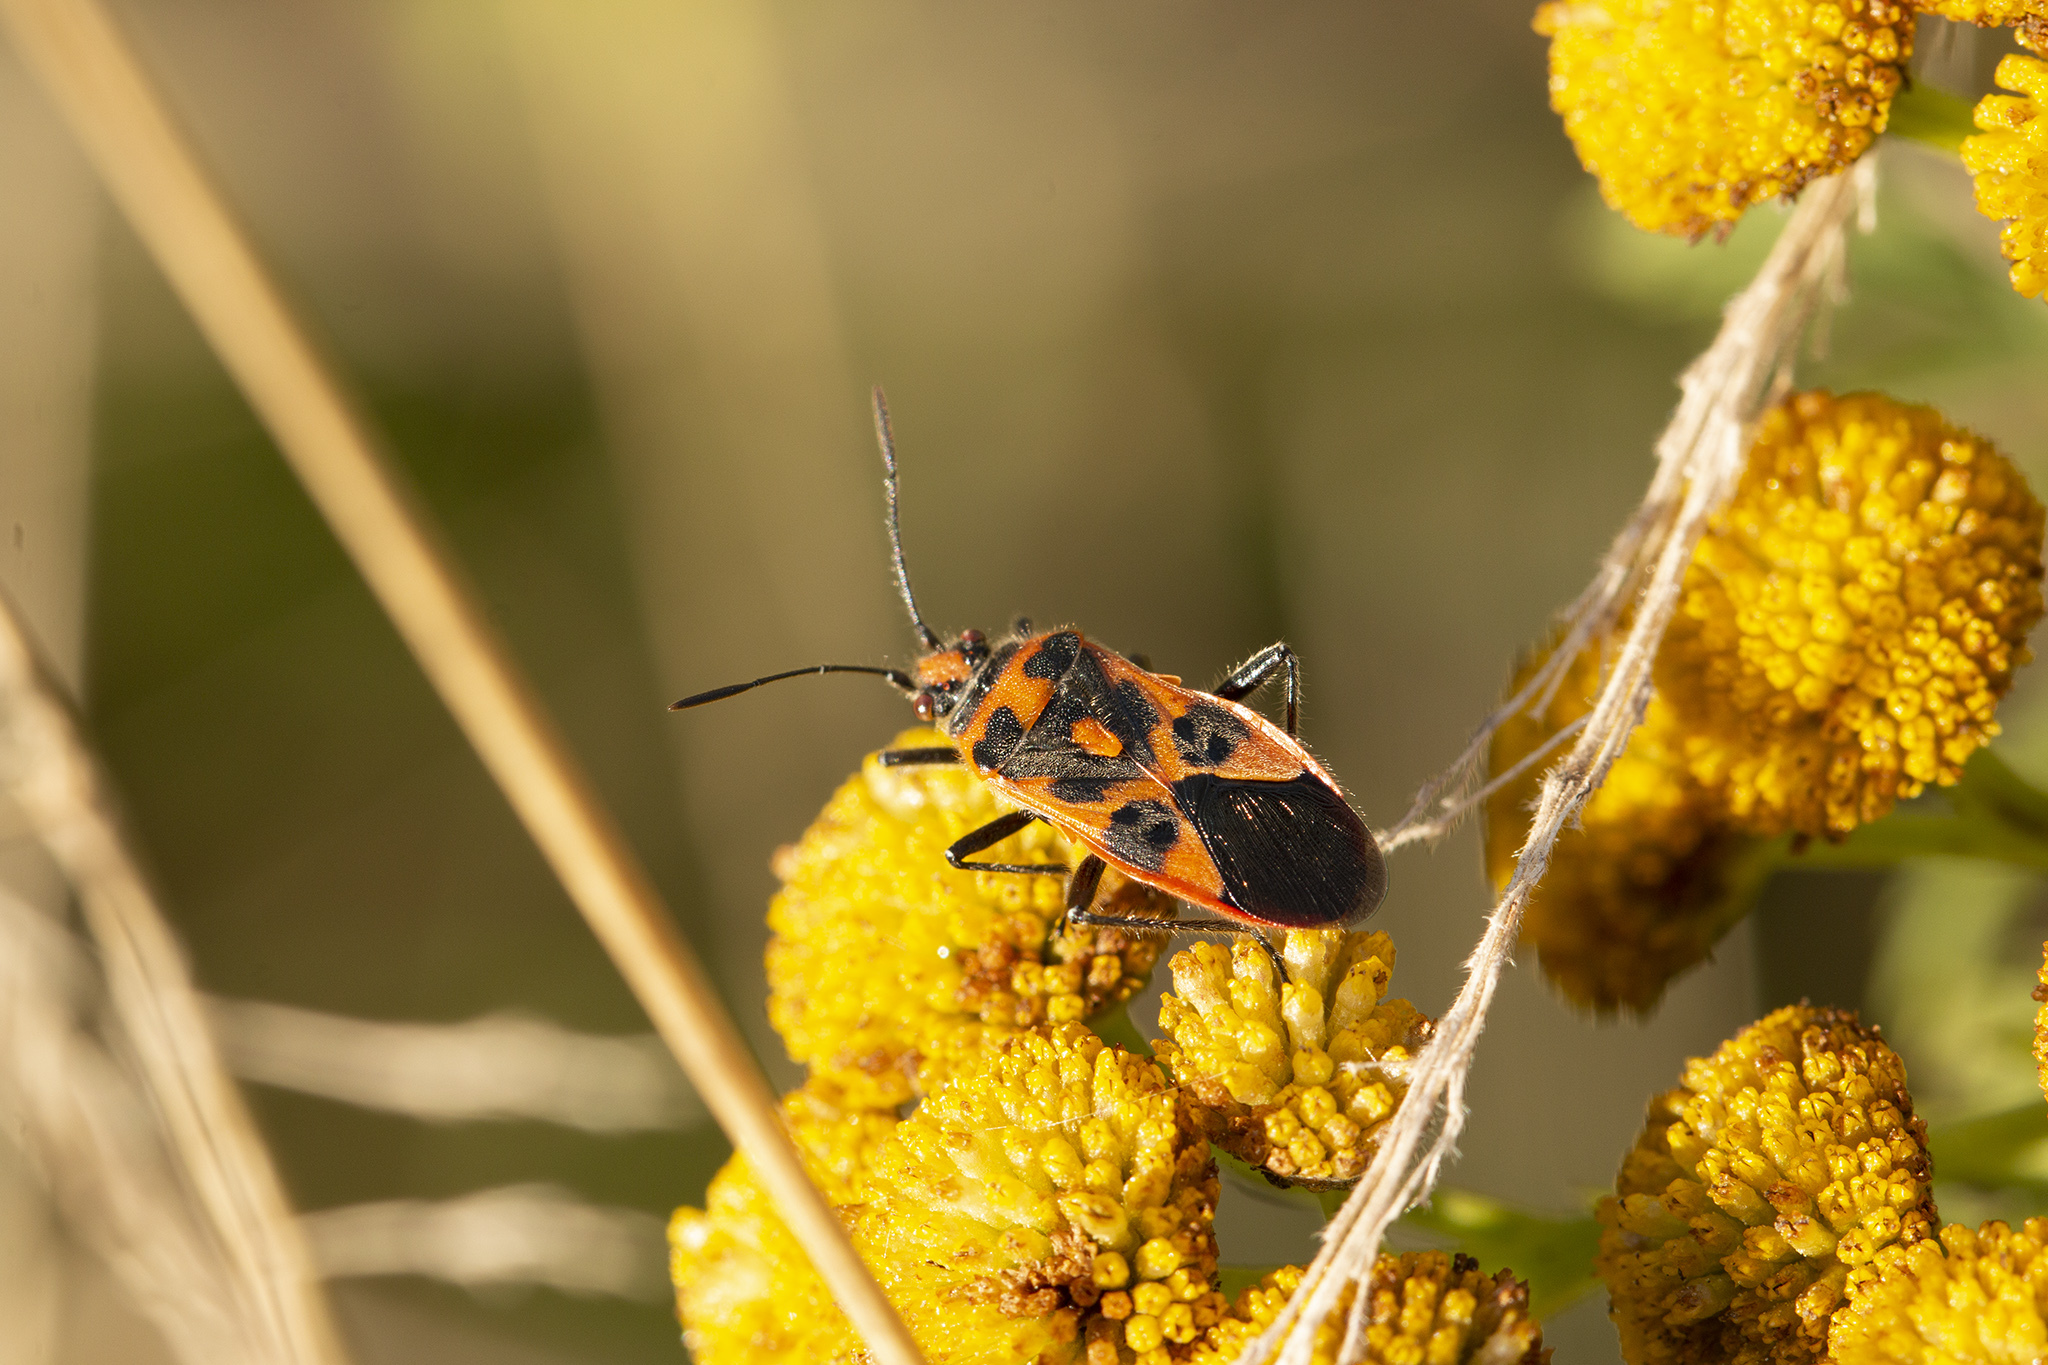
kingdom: Animalia
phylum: Arthropoda
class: Insecta
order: Hemiptera
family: Rhopalidae
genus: Corizus
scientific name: Corizus hyoscyami
